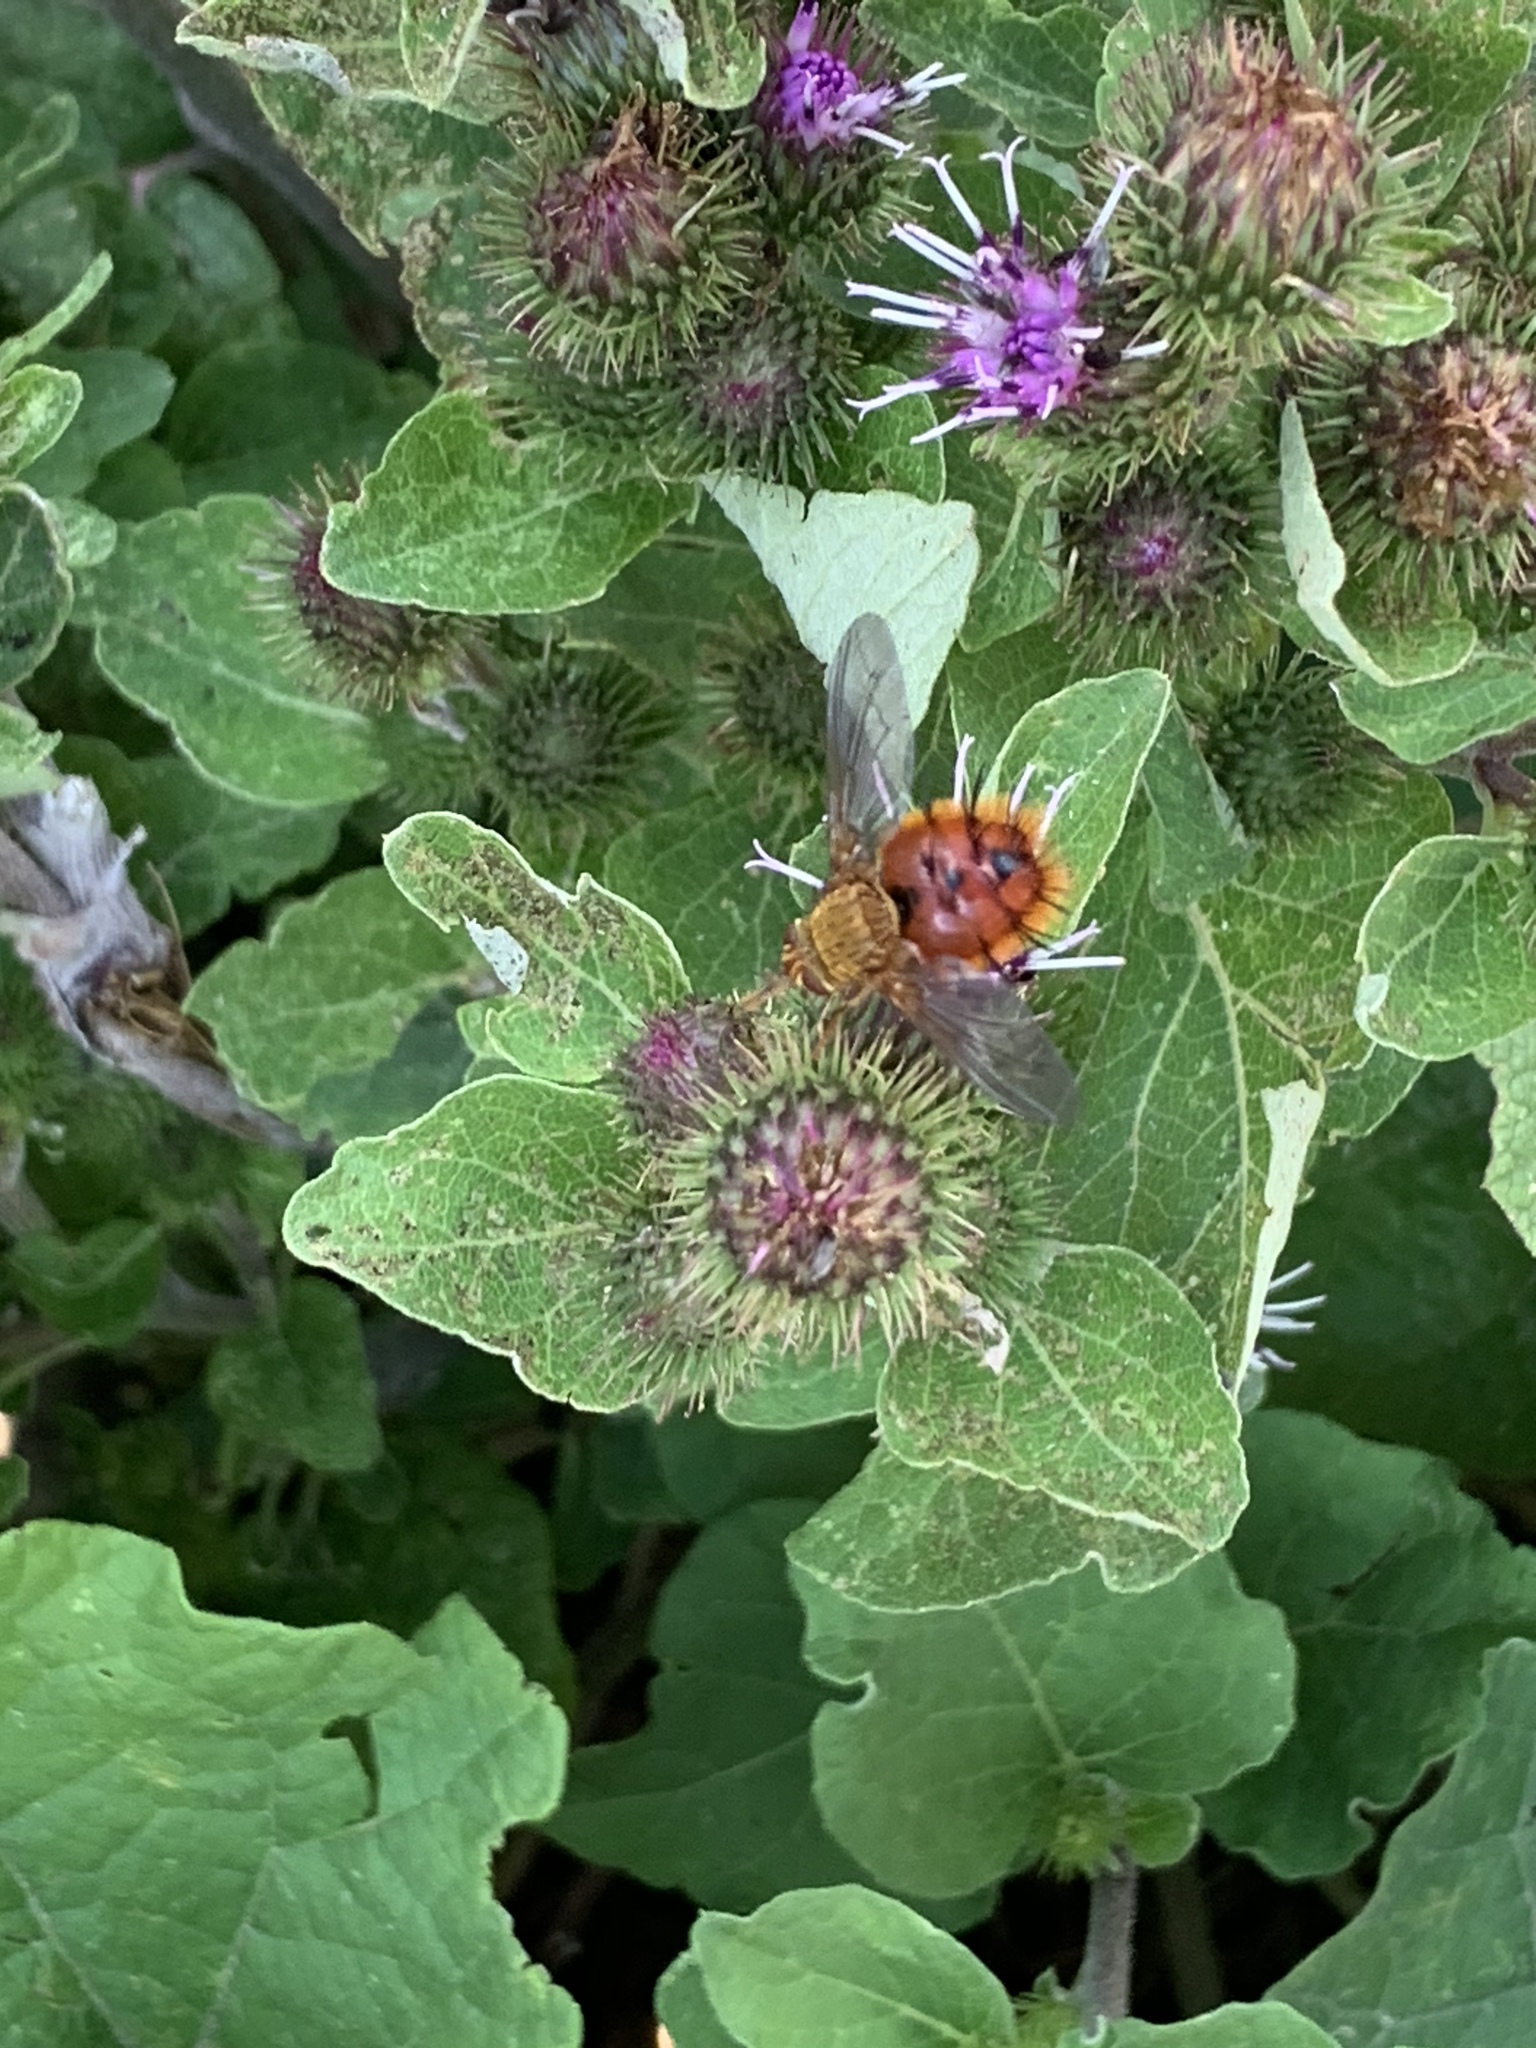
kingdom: Animalia
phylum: Arthropoda
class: Insecta
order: Diptera
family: Tachinidae
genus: Adejeania
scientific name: Adejeania vexatrix
